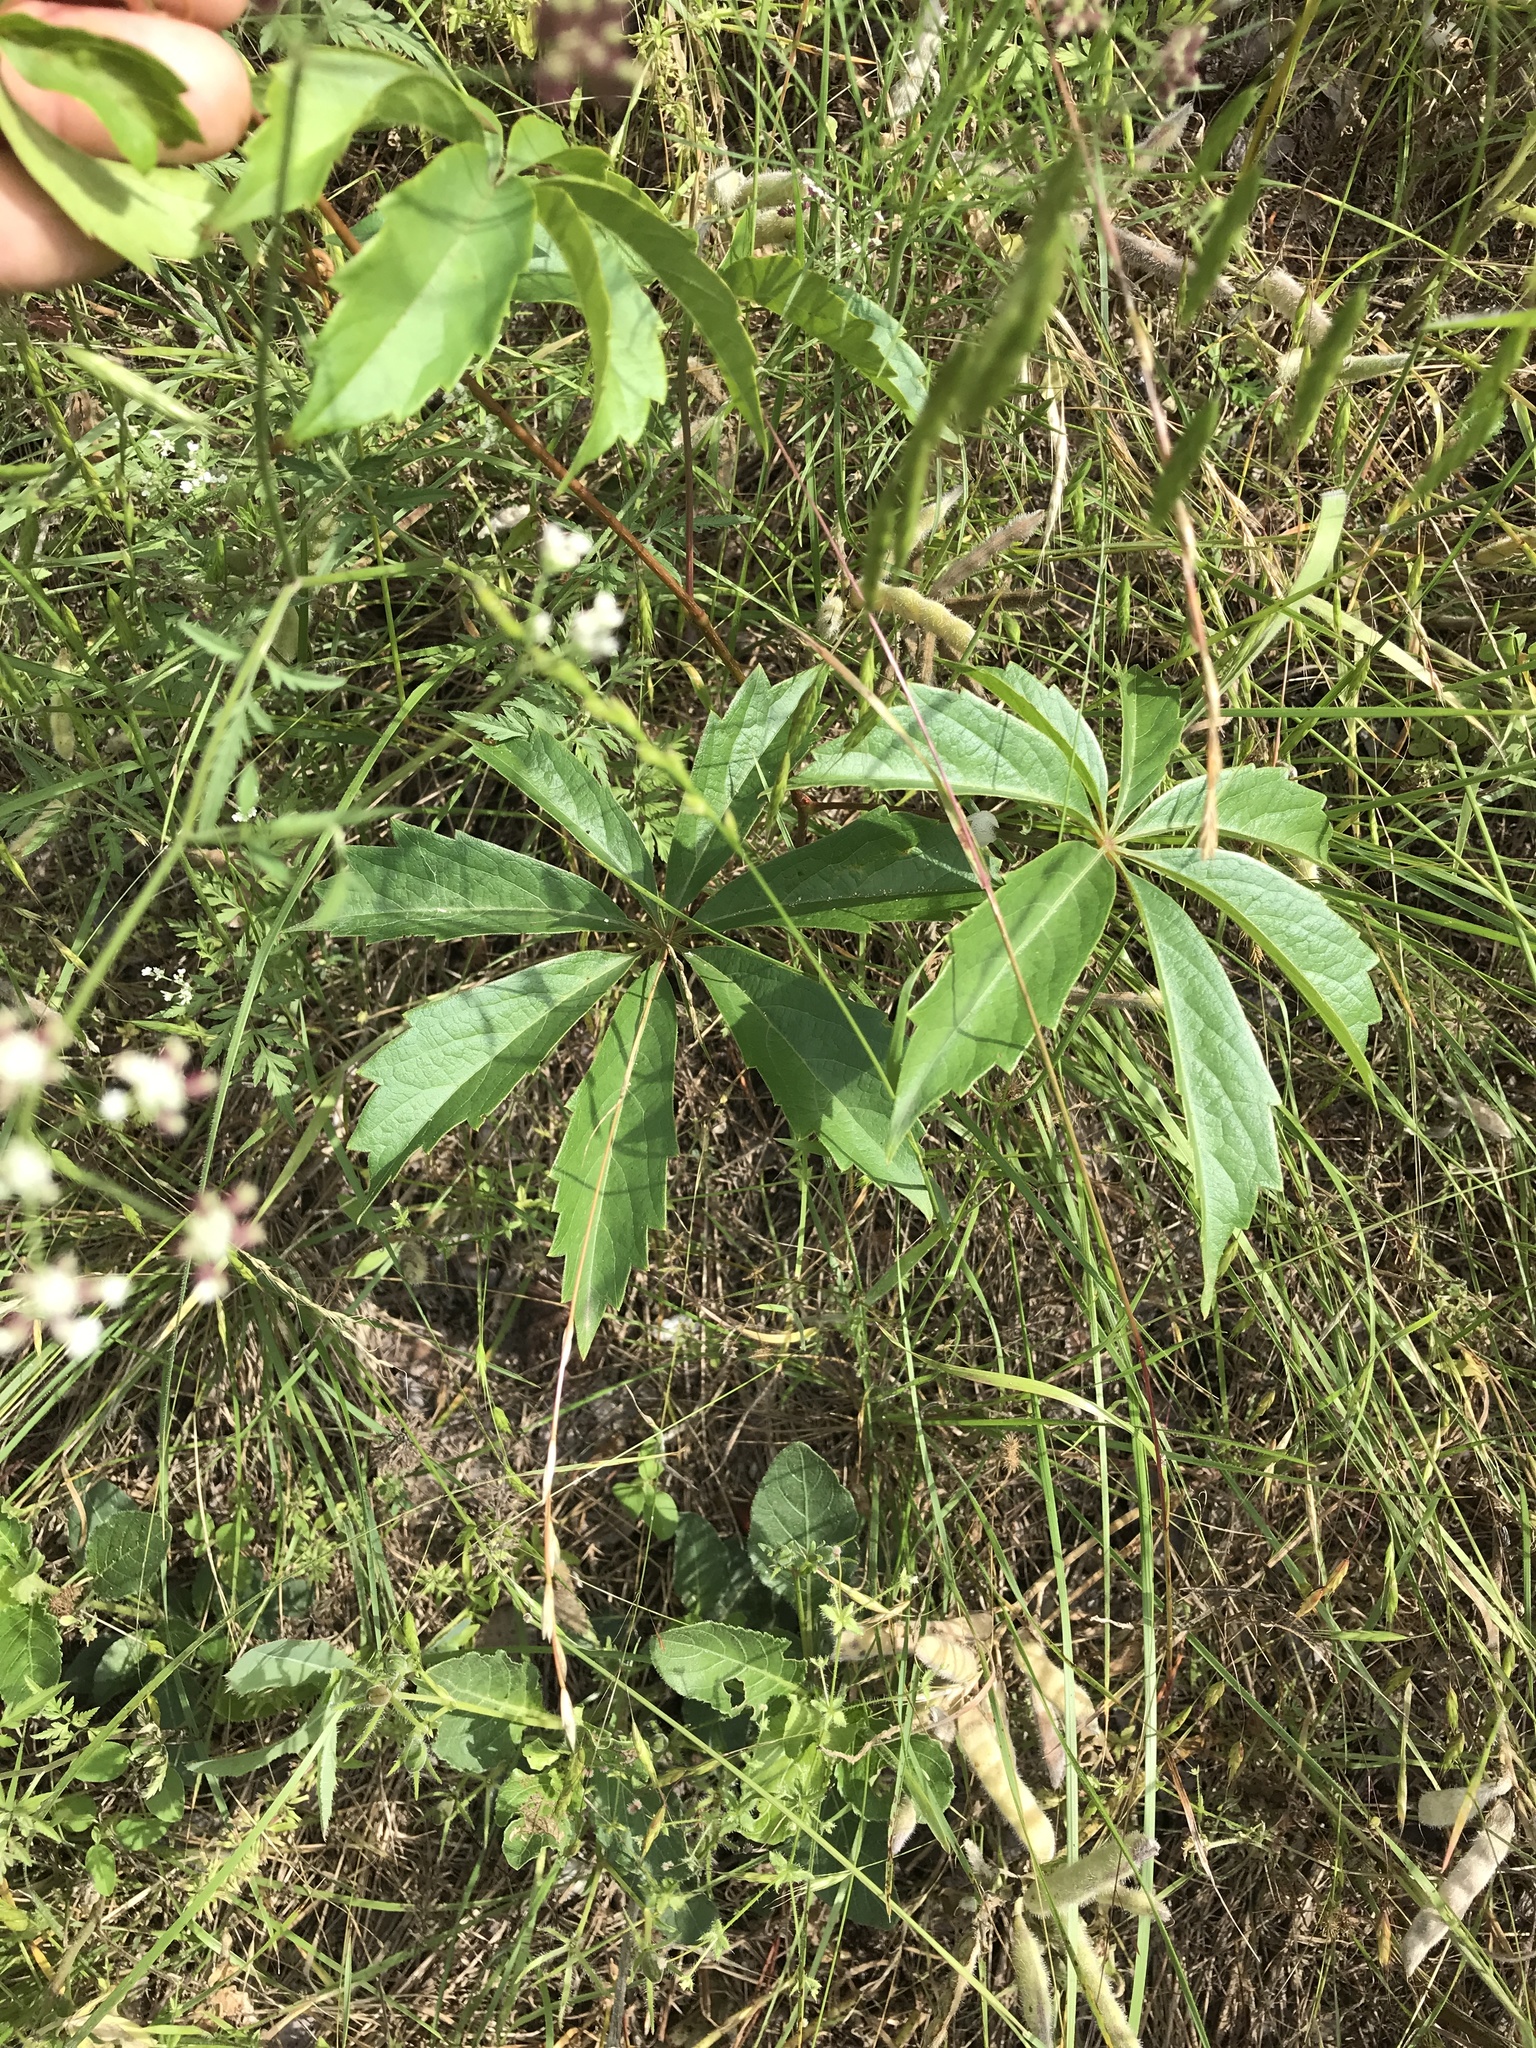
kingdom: Plantae
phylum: Tracheophyta
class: Magnoliopsida
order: Vitales
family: Vitaceae
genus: Parthenocissus
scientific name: Parthenocissus heptaphylla
